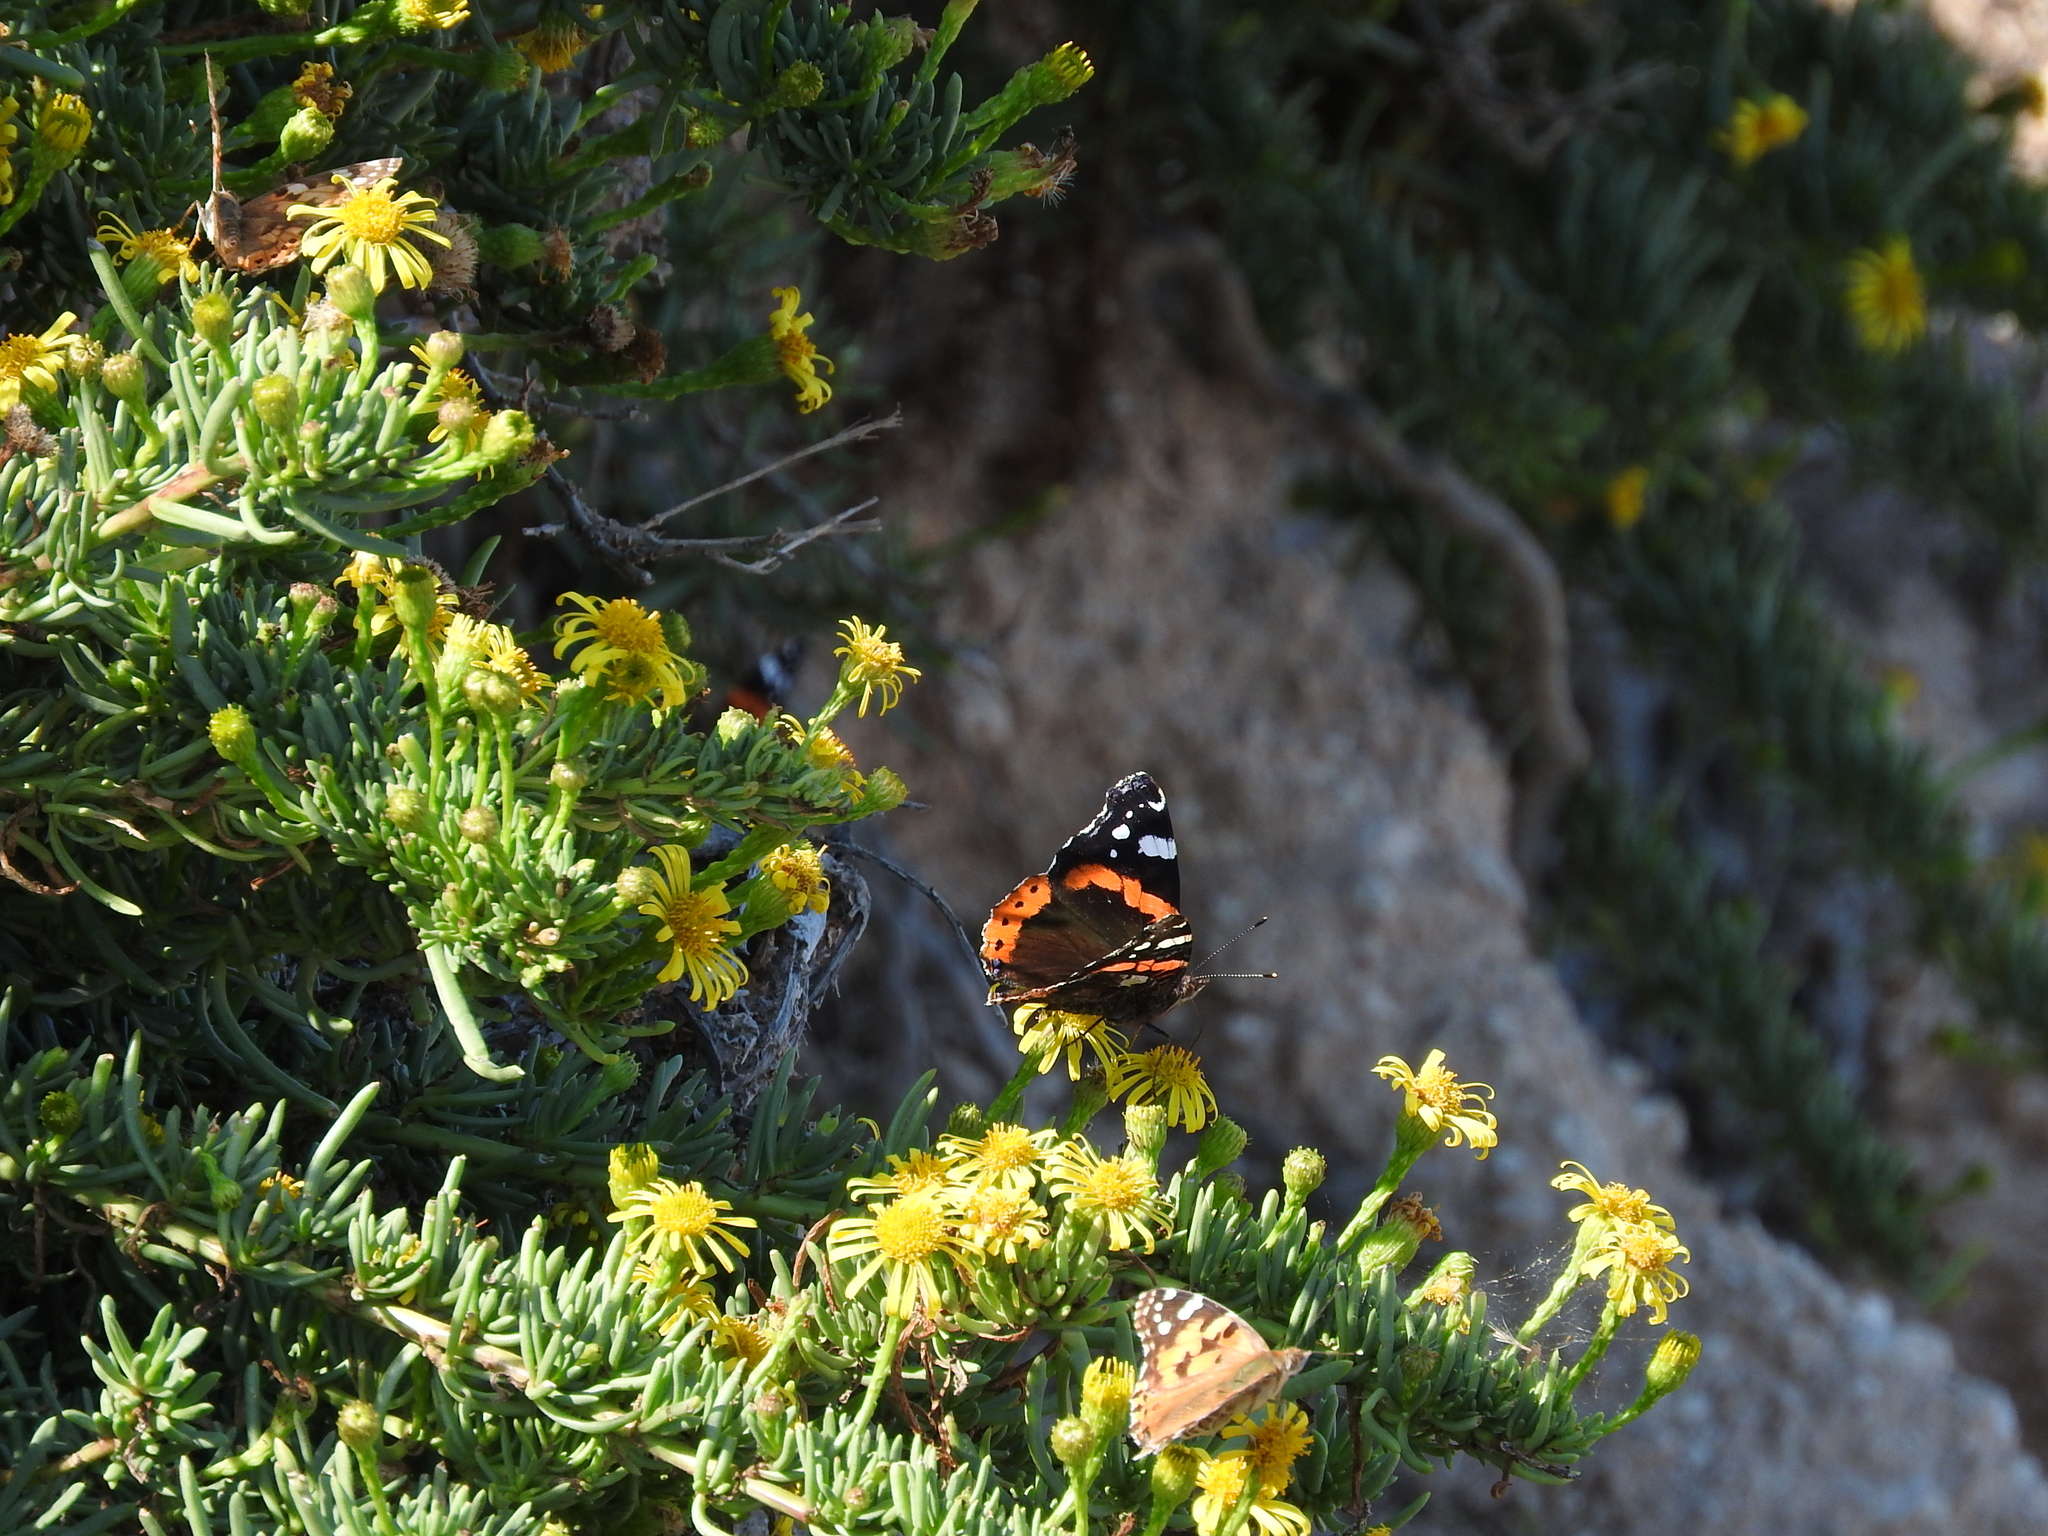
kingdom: Animalia
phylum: Arthropoda
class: Insecta
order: Lepidoptera
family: Nymphalidae
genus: Vanessa
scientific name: Vanessa atalanta
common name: Red admiral
